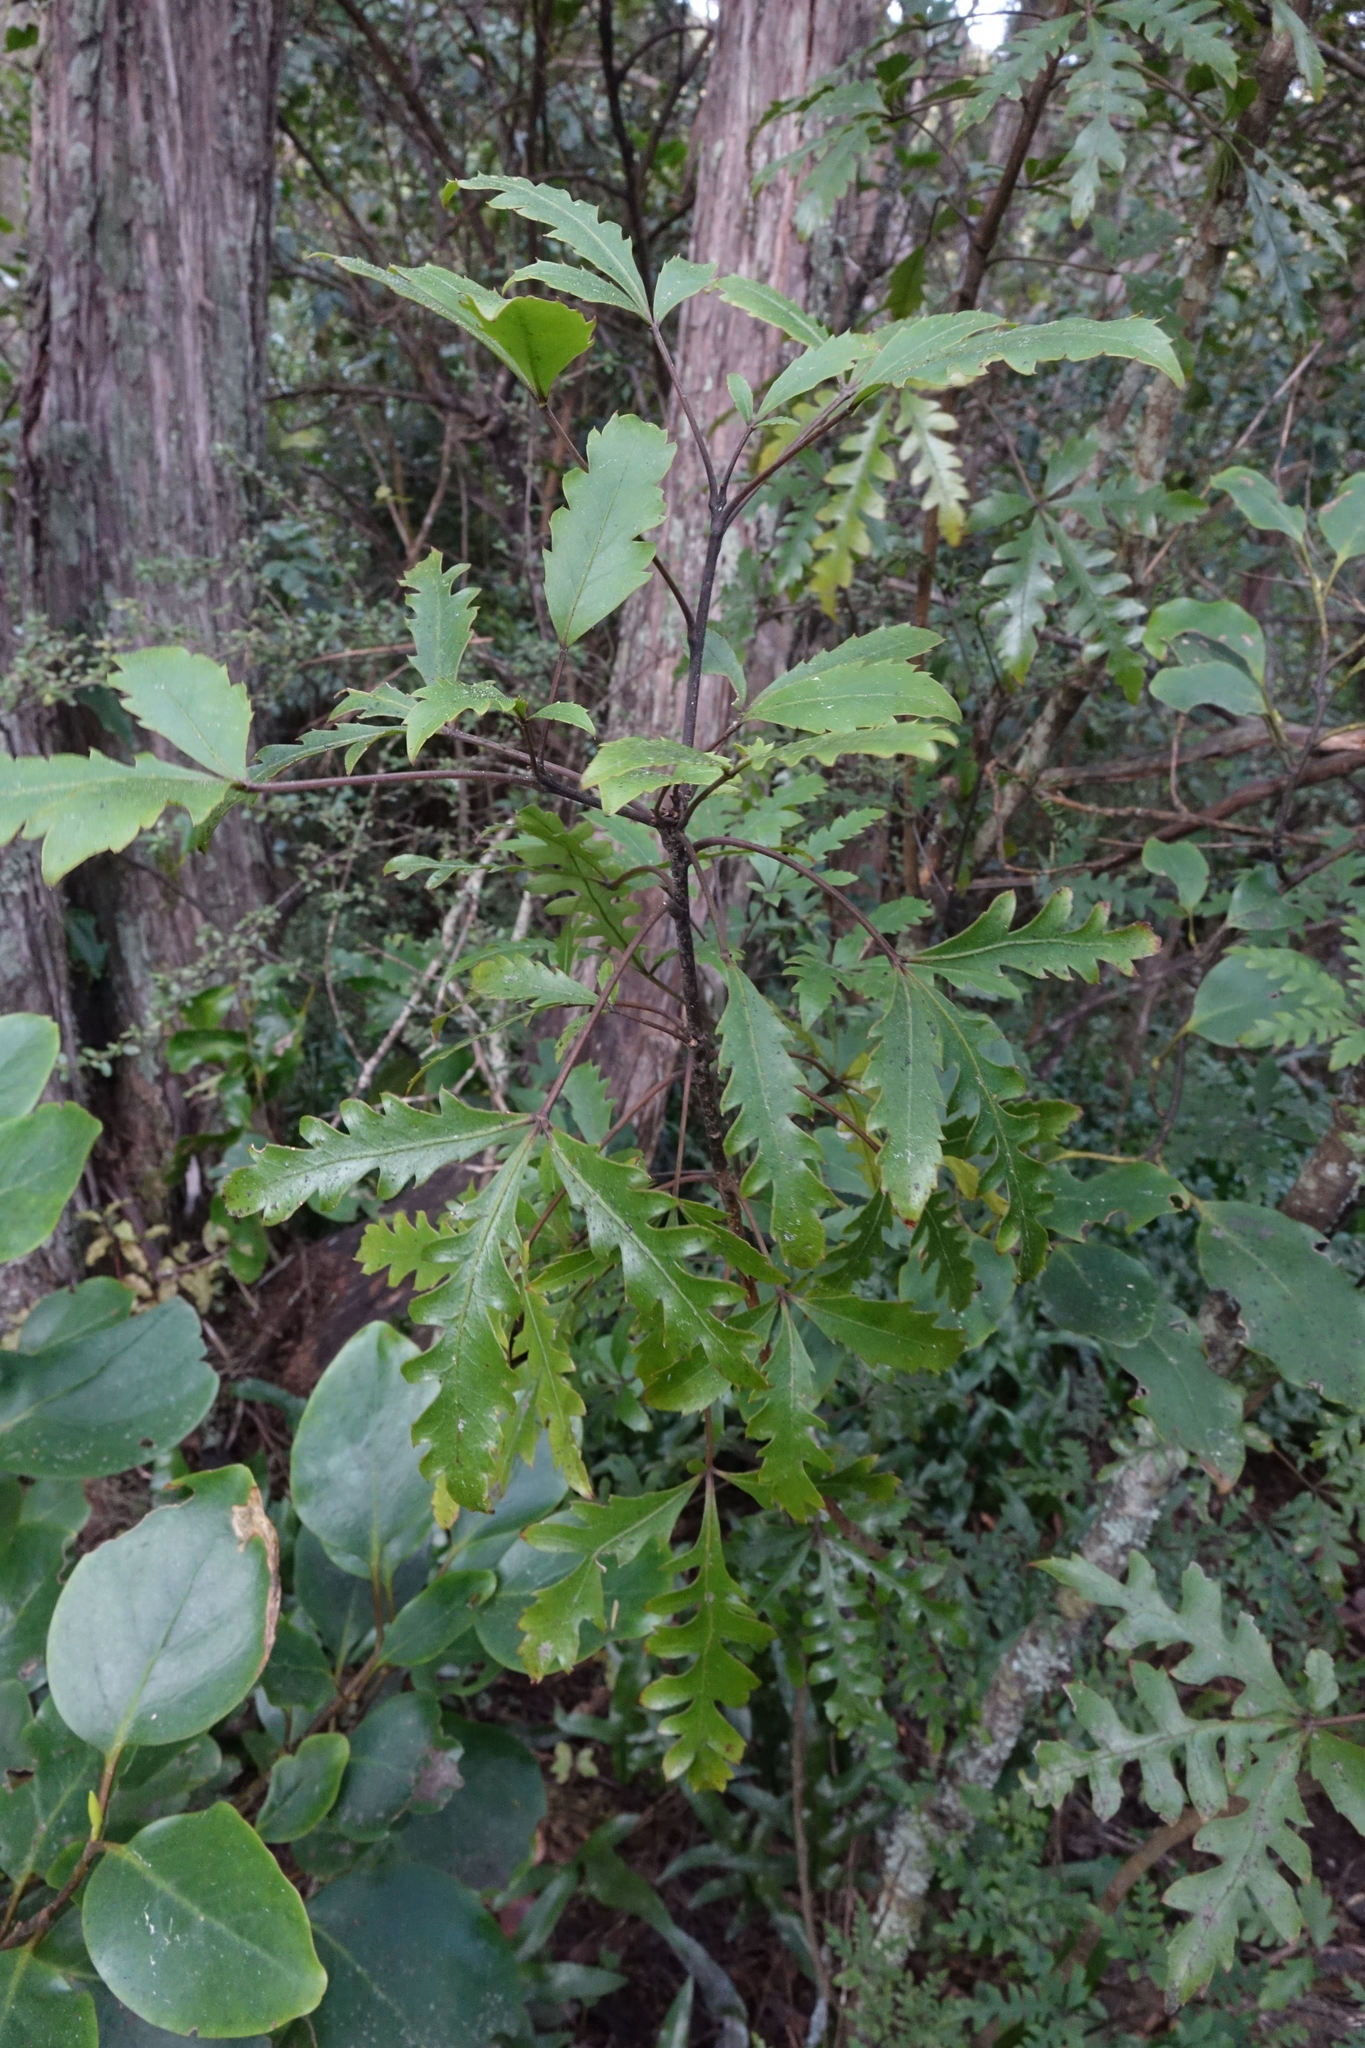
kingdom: Plantae
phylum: Tracheophyta
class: Magnoliopsida
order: Apiales
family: Araliaceae
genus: Raukaua
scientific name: Raukaua simplex
